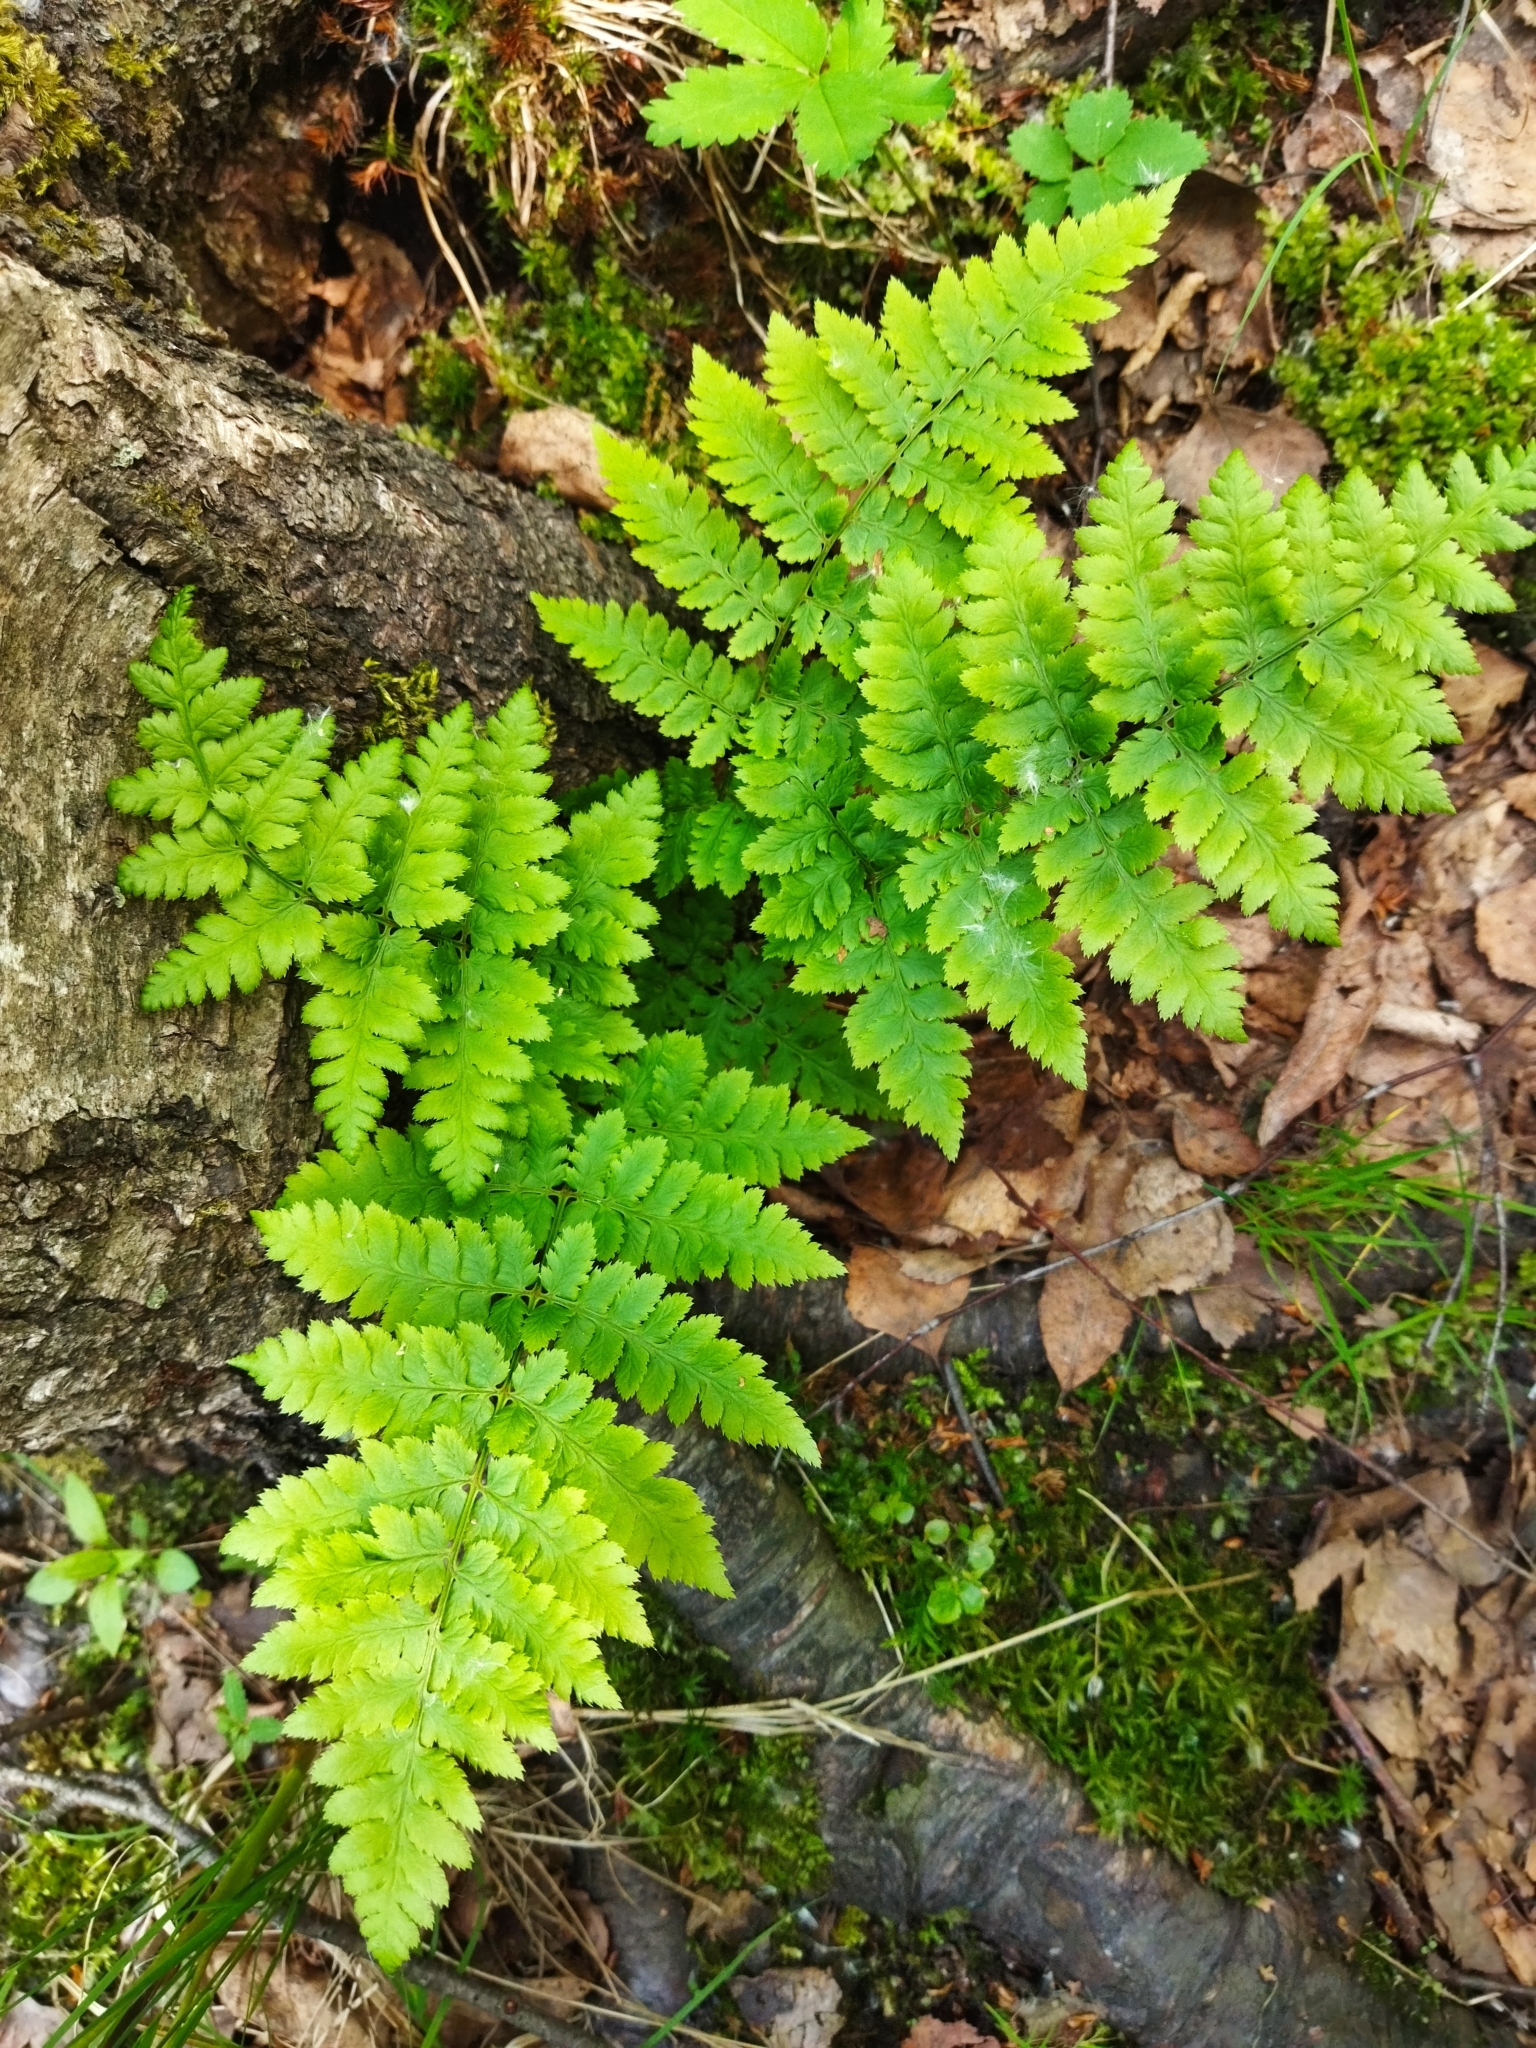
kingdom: Plantae
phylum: Tracheophyta
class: Polypodiopsida
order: Polypodiales
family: Dryopteridaceae
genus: Dryopteris
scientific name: Dryopteris carthusiana
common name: Narrow buckler-fern
